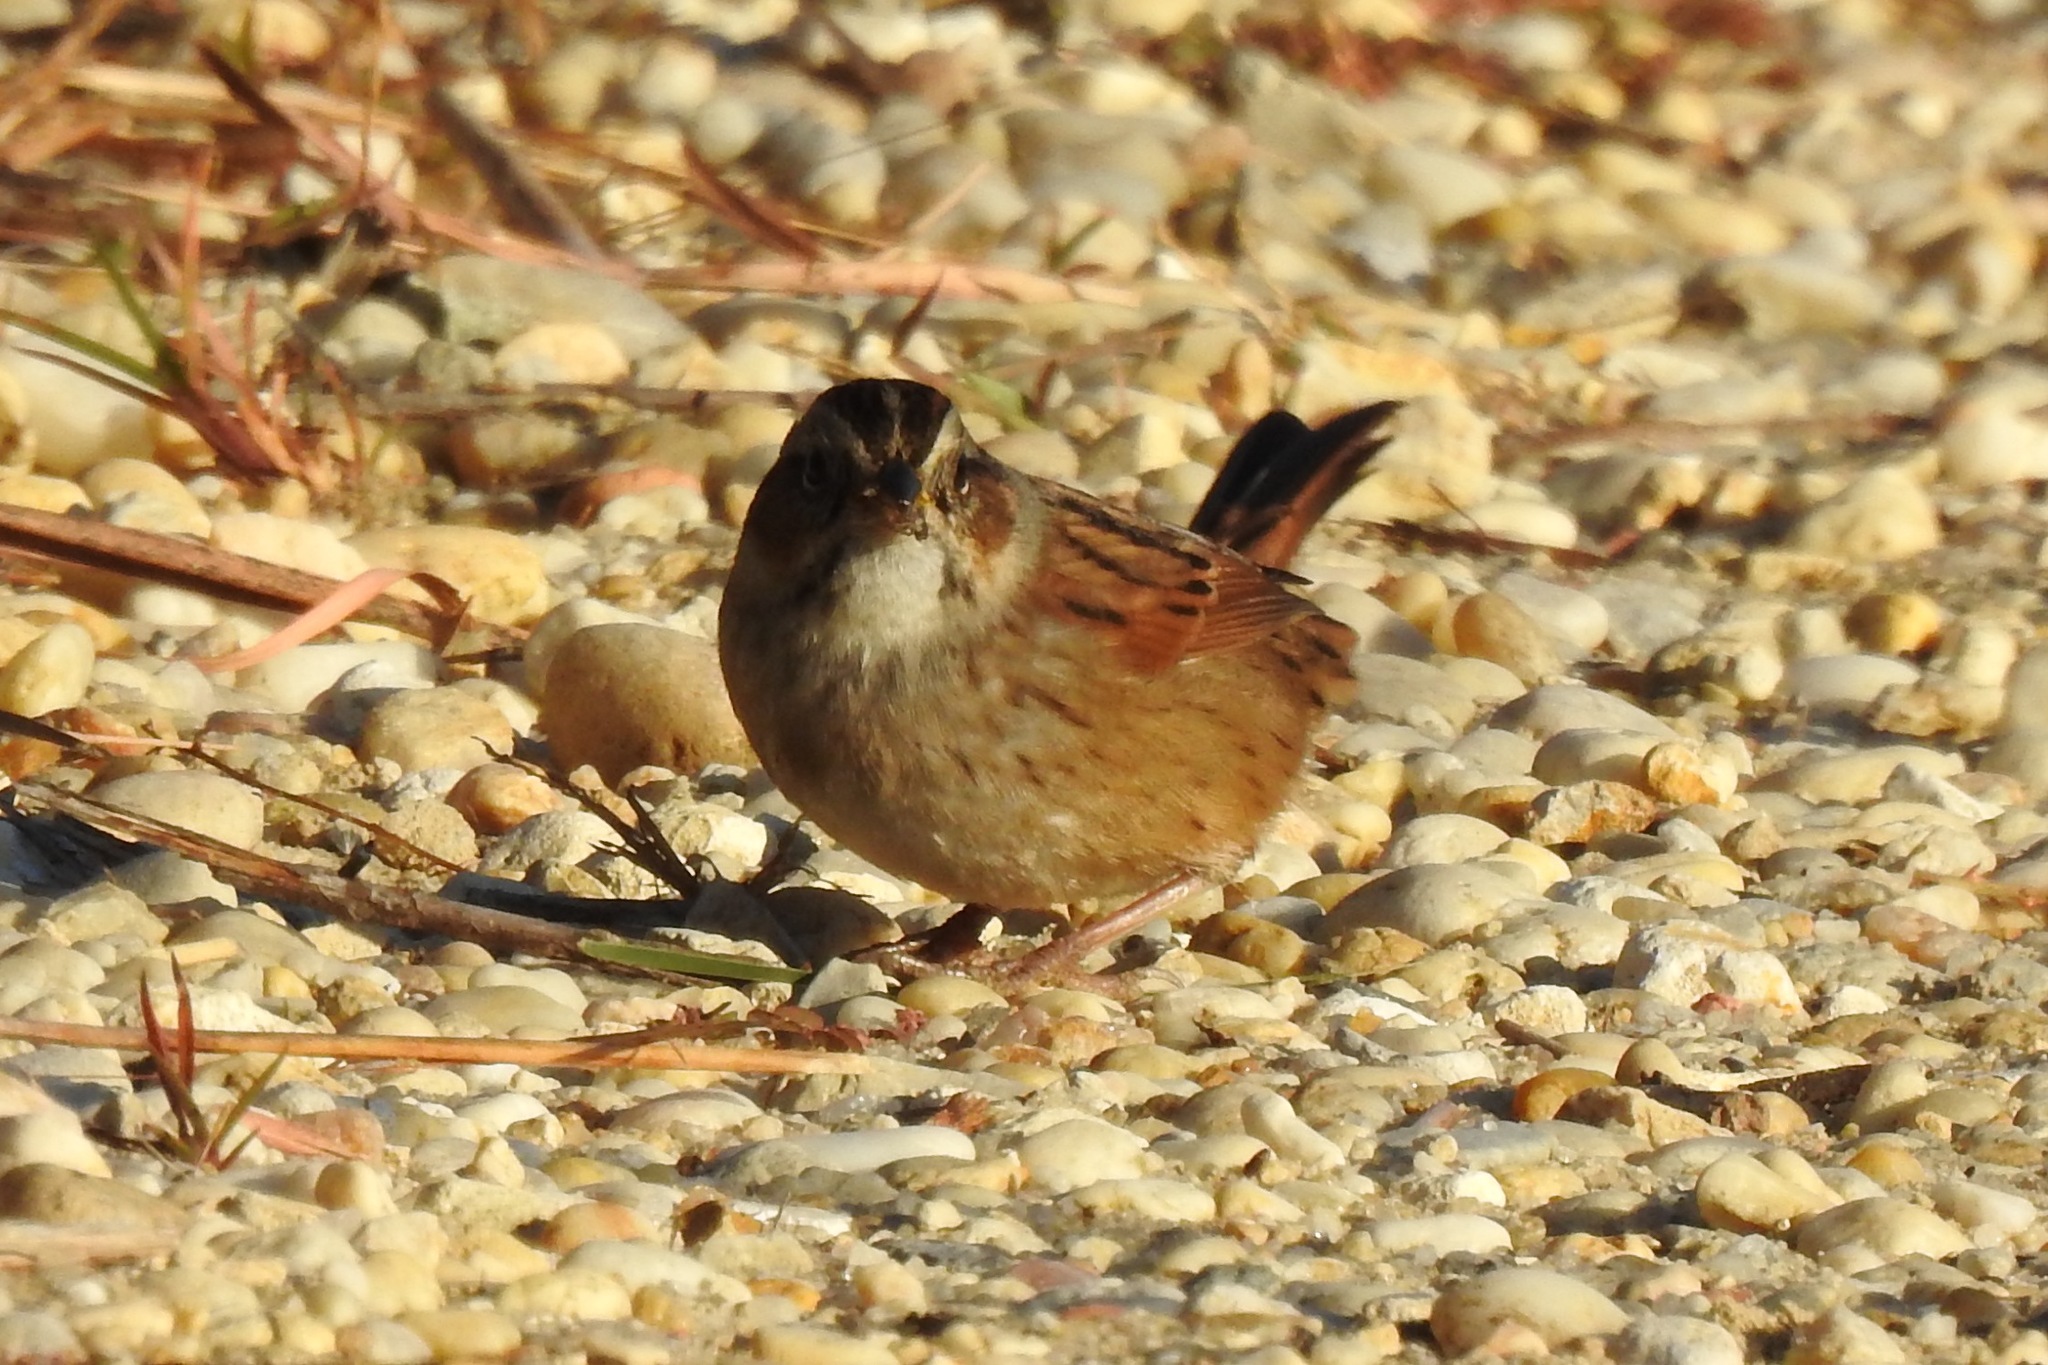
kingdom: Animalia
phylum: Chordata
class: Aves
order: Passeriformes
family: Passerellidae
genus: Melospiza
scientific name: Melospiza georgiana
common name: Swamp sparrow
